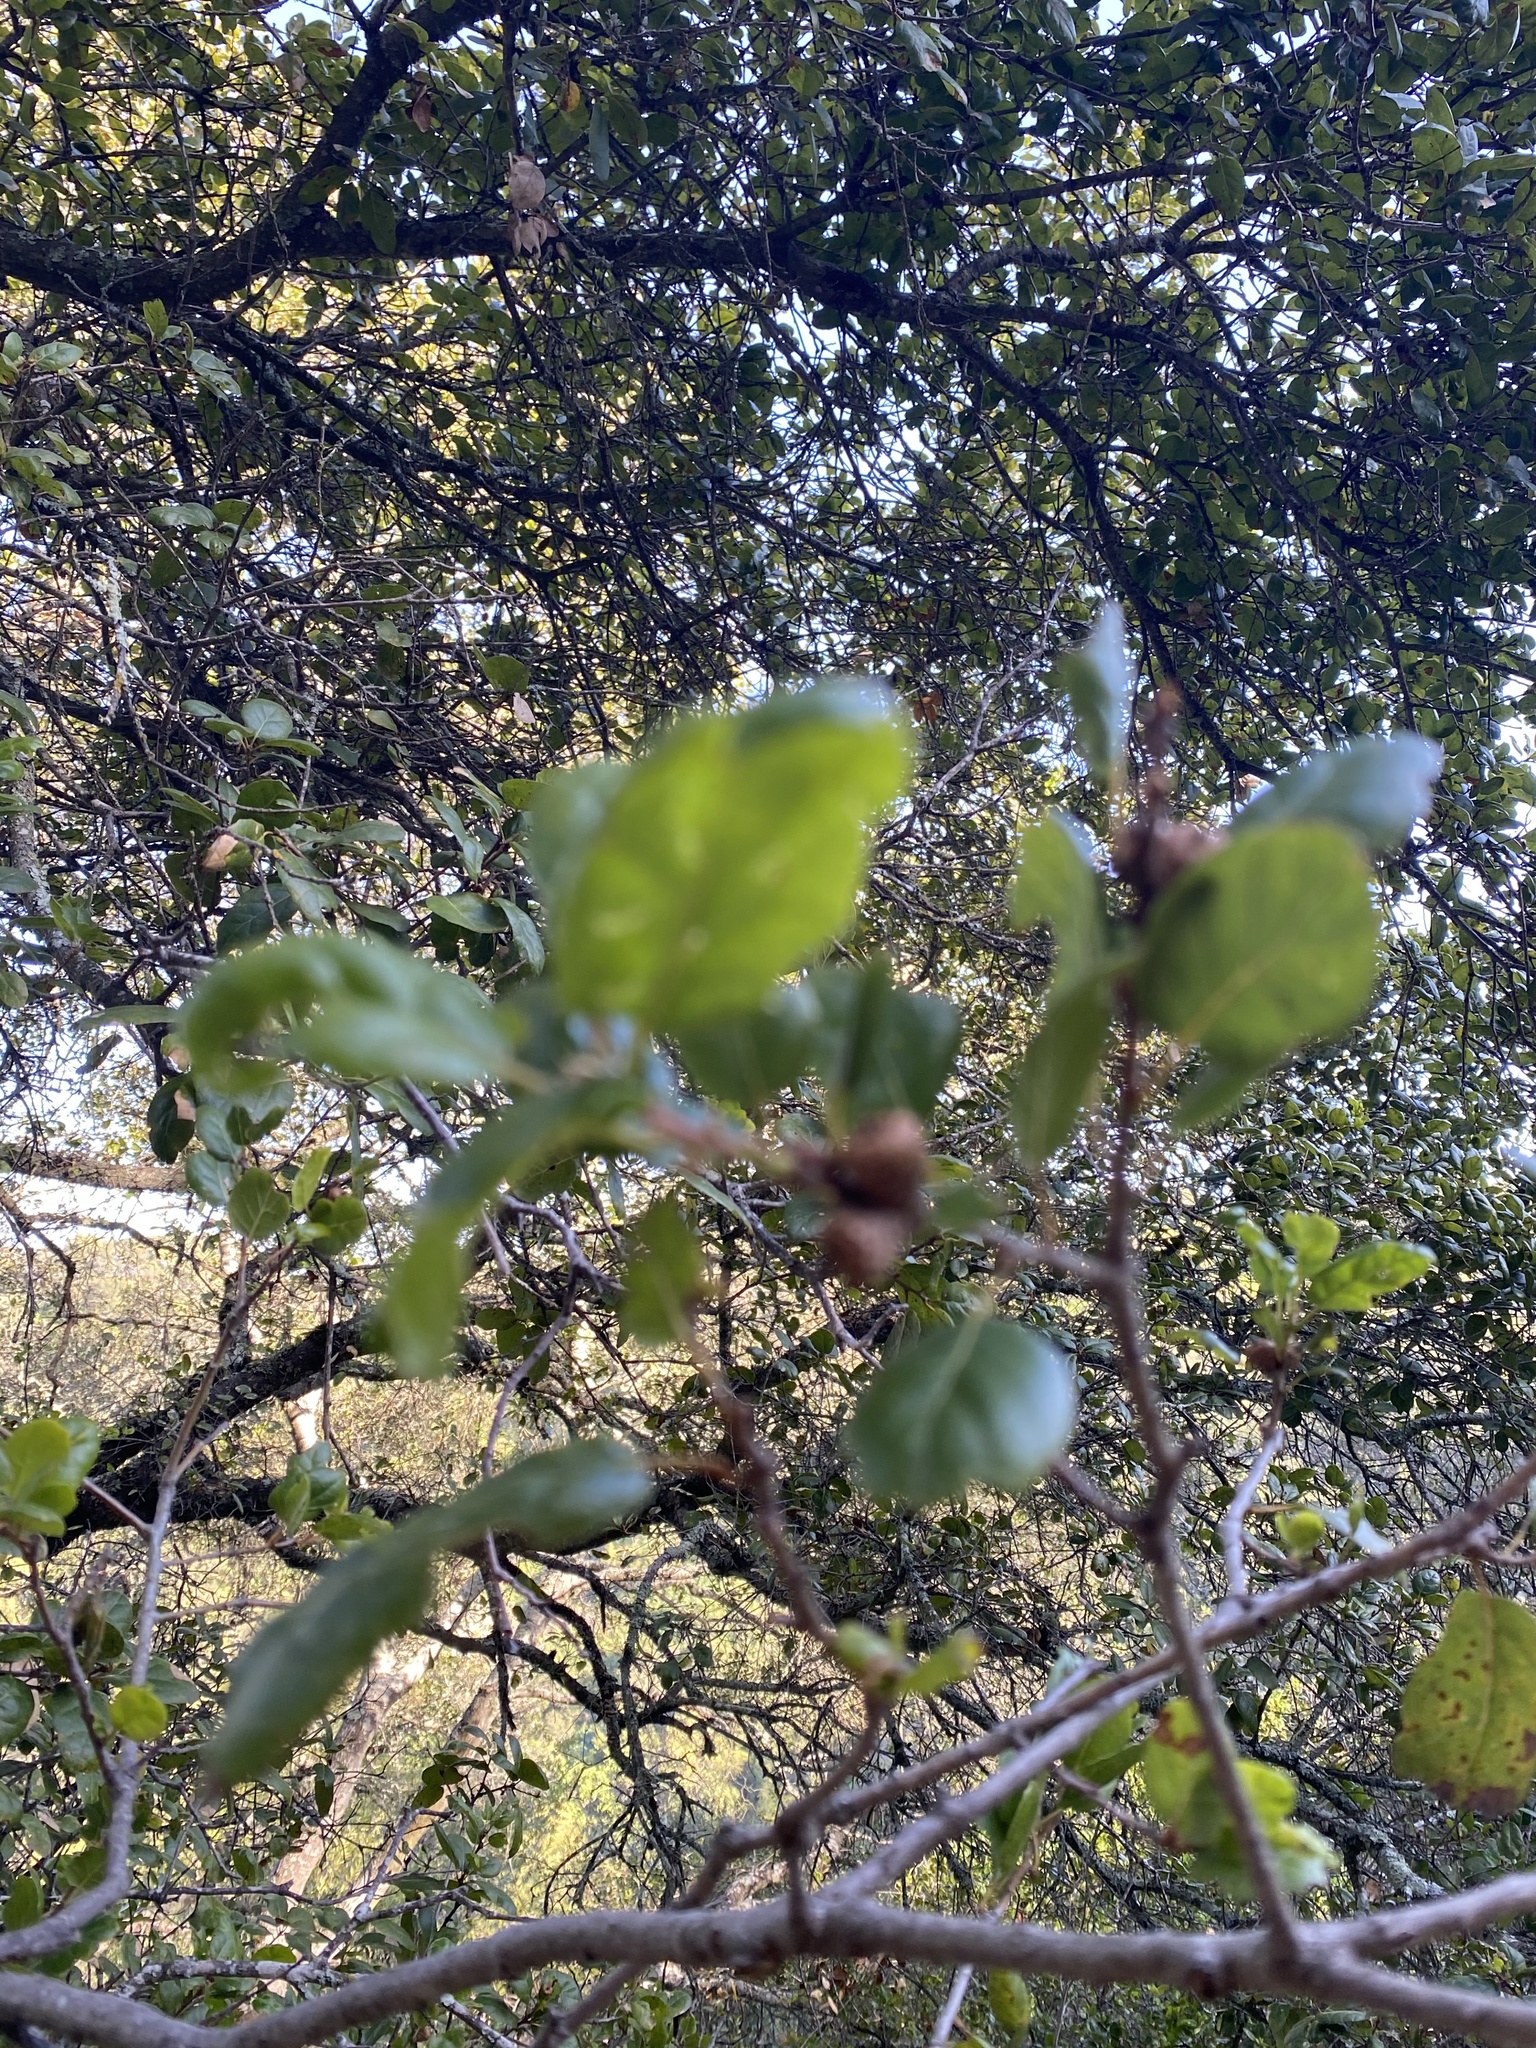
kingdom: Plantae
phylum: Tracheophyta
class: Magnoliopsida
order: Fagales
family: Fagaceae
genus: Quercus
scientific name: Quercus agrifolia
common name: California live oak
